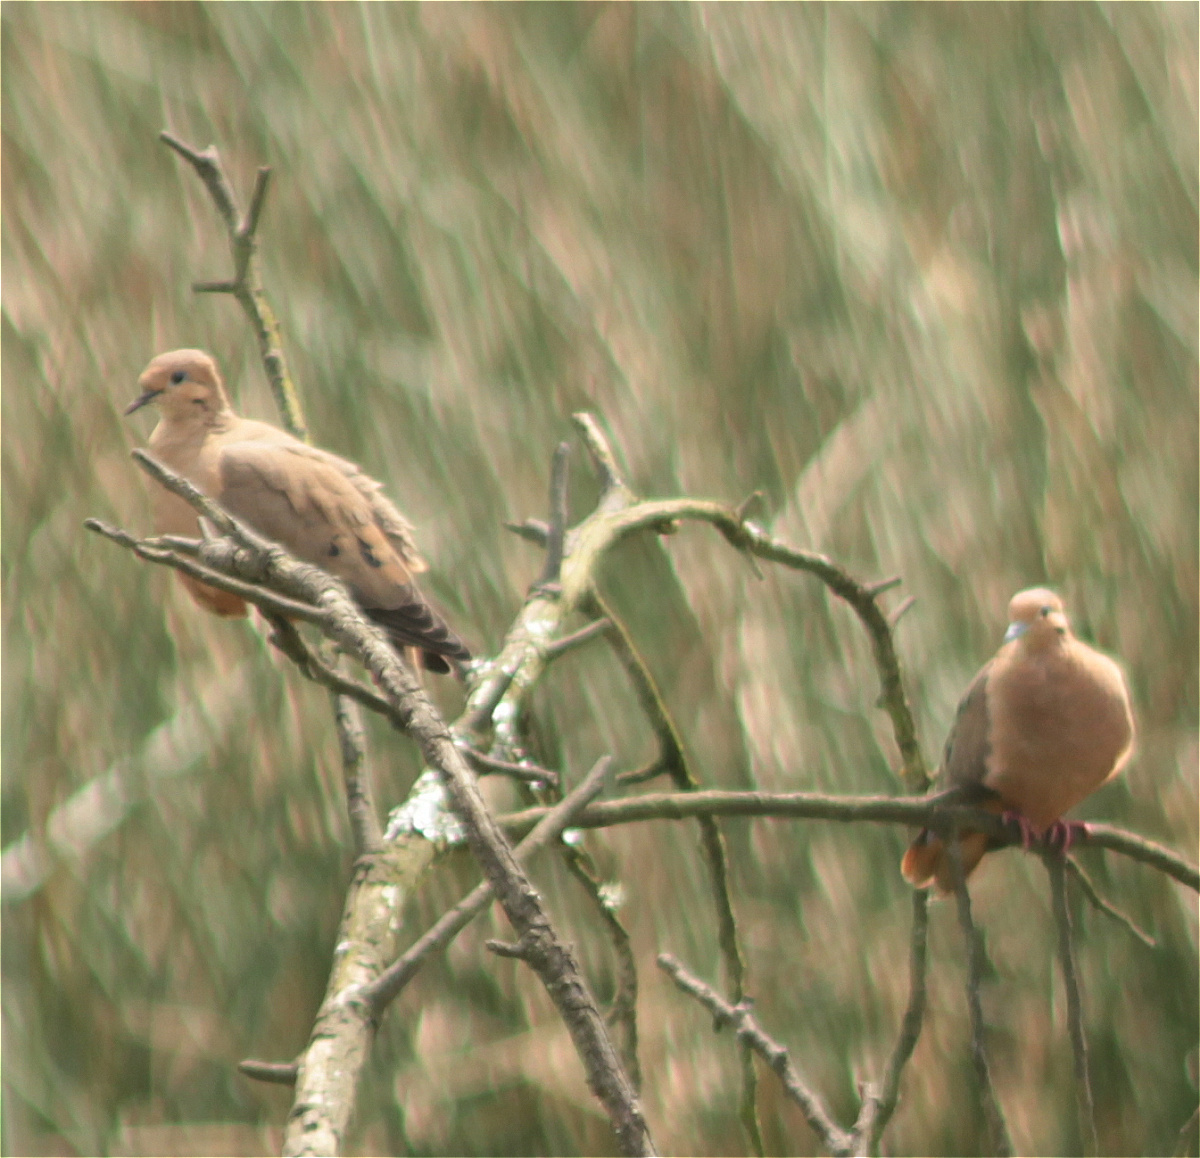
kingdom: Animalia
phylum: Chordata
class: Aves
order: Columbiformes
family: Columbidae
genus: Zenaida
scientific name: Zenaida auriculata
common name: Eared dove
